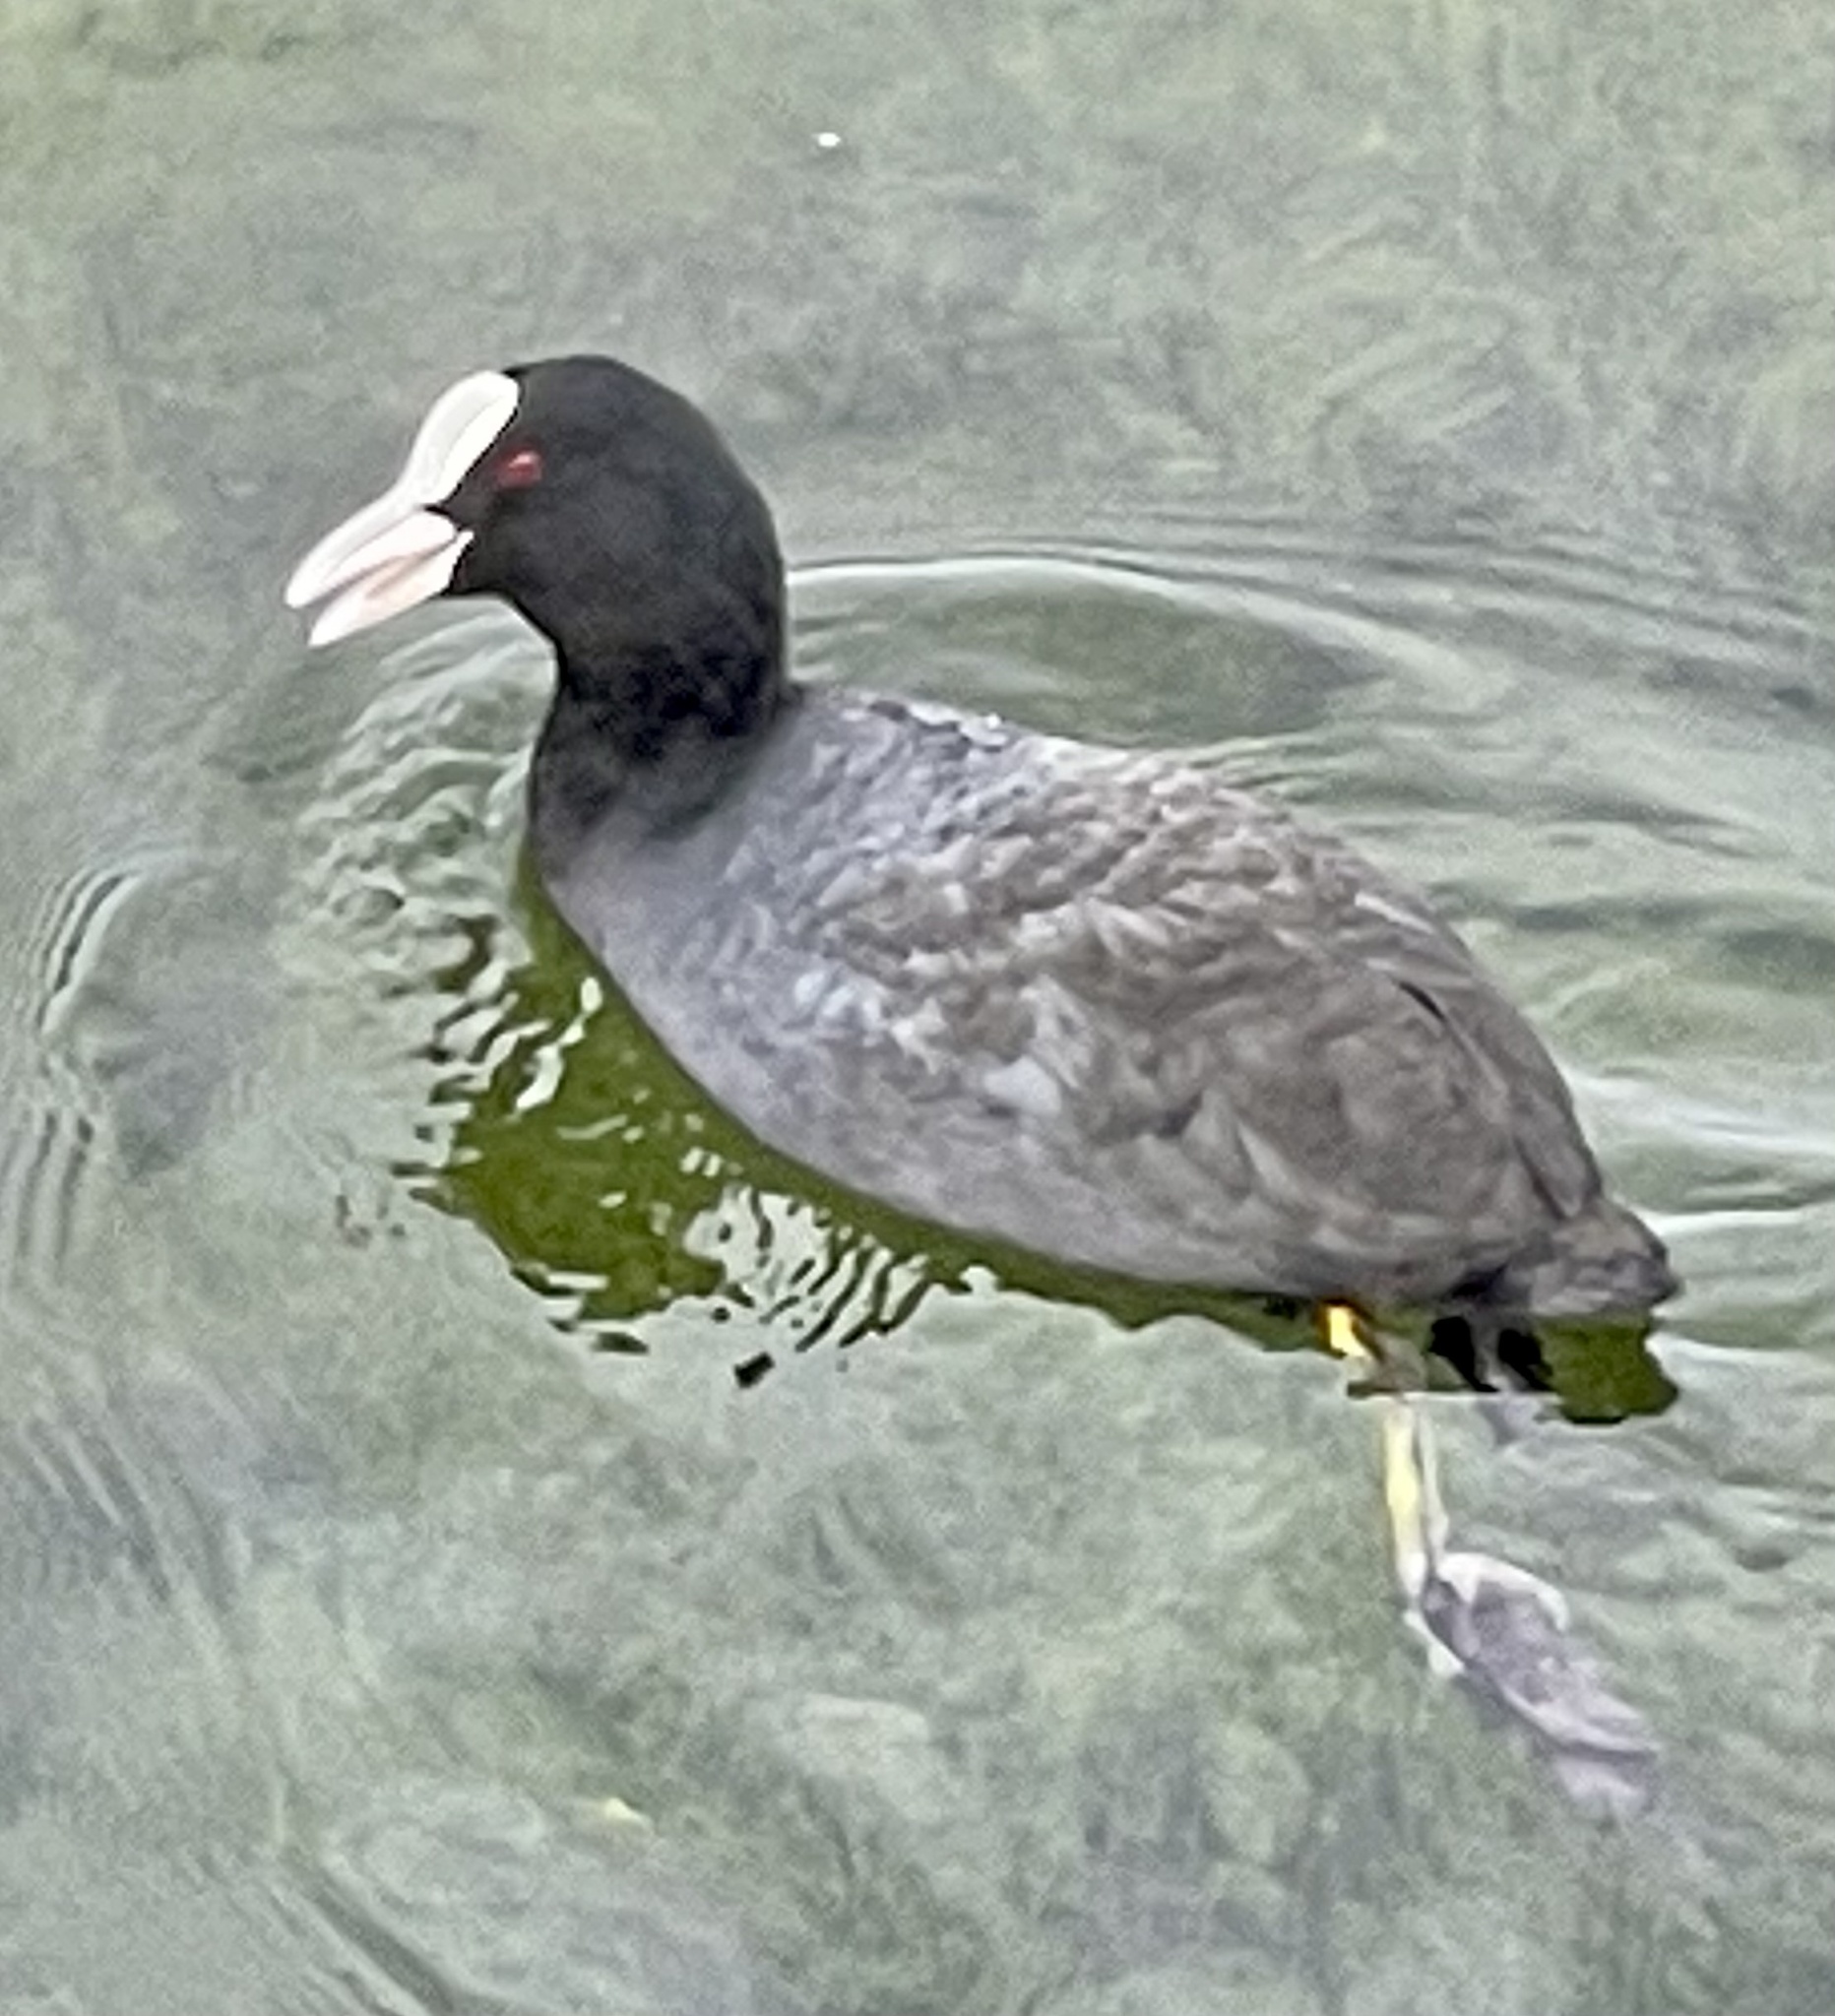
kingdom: Animalia
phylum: Chordata
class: Aves
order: Gruiformes
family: Rallidae
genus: Fulica
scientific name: Fulica atra
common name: Eurasian coot
